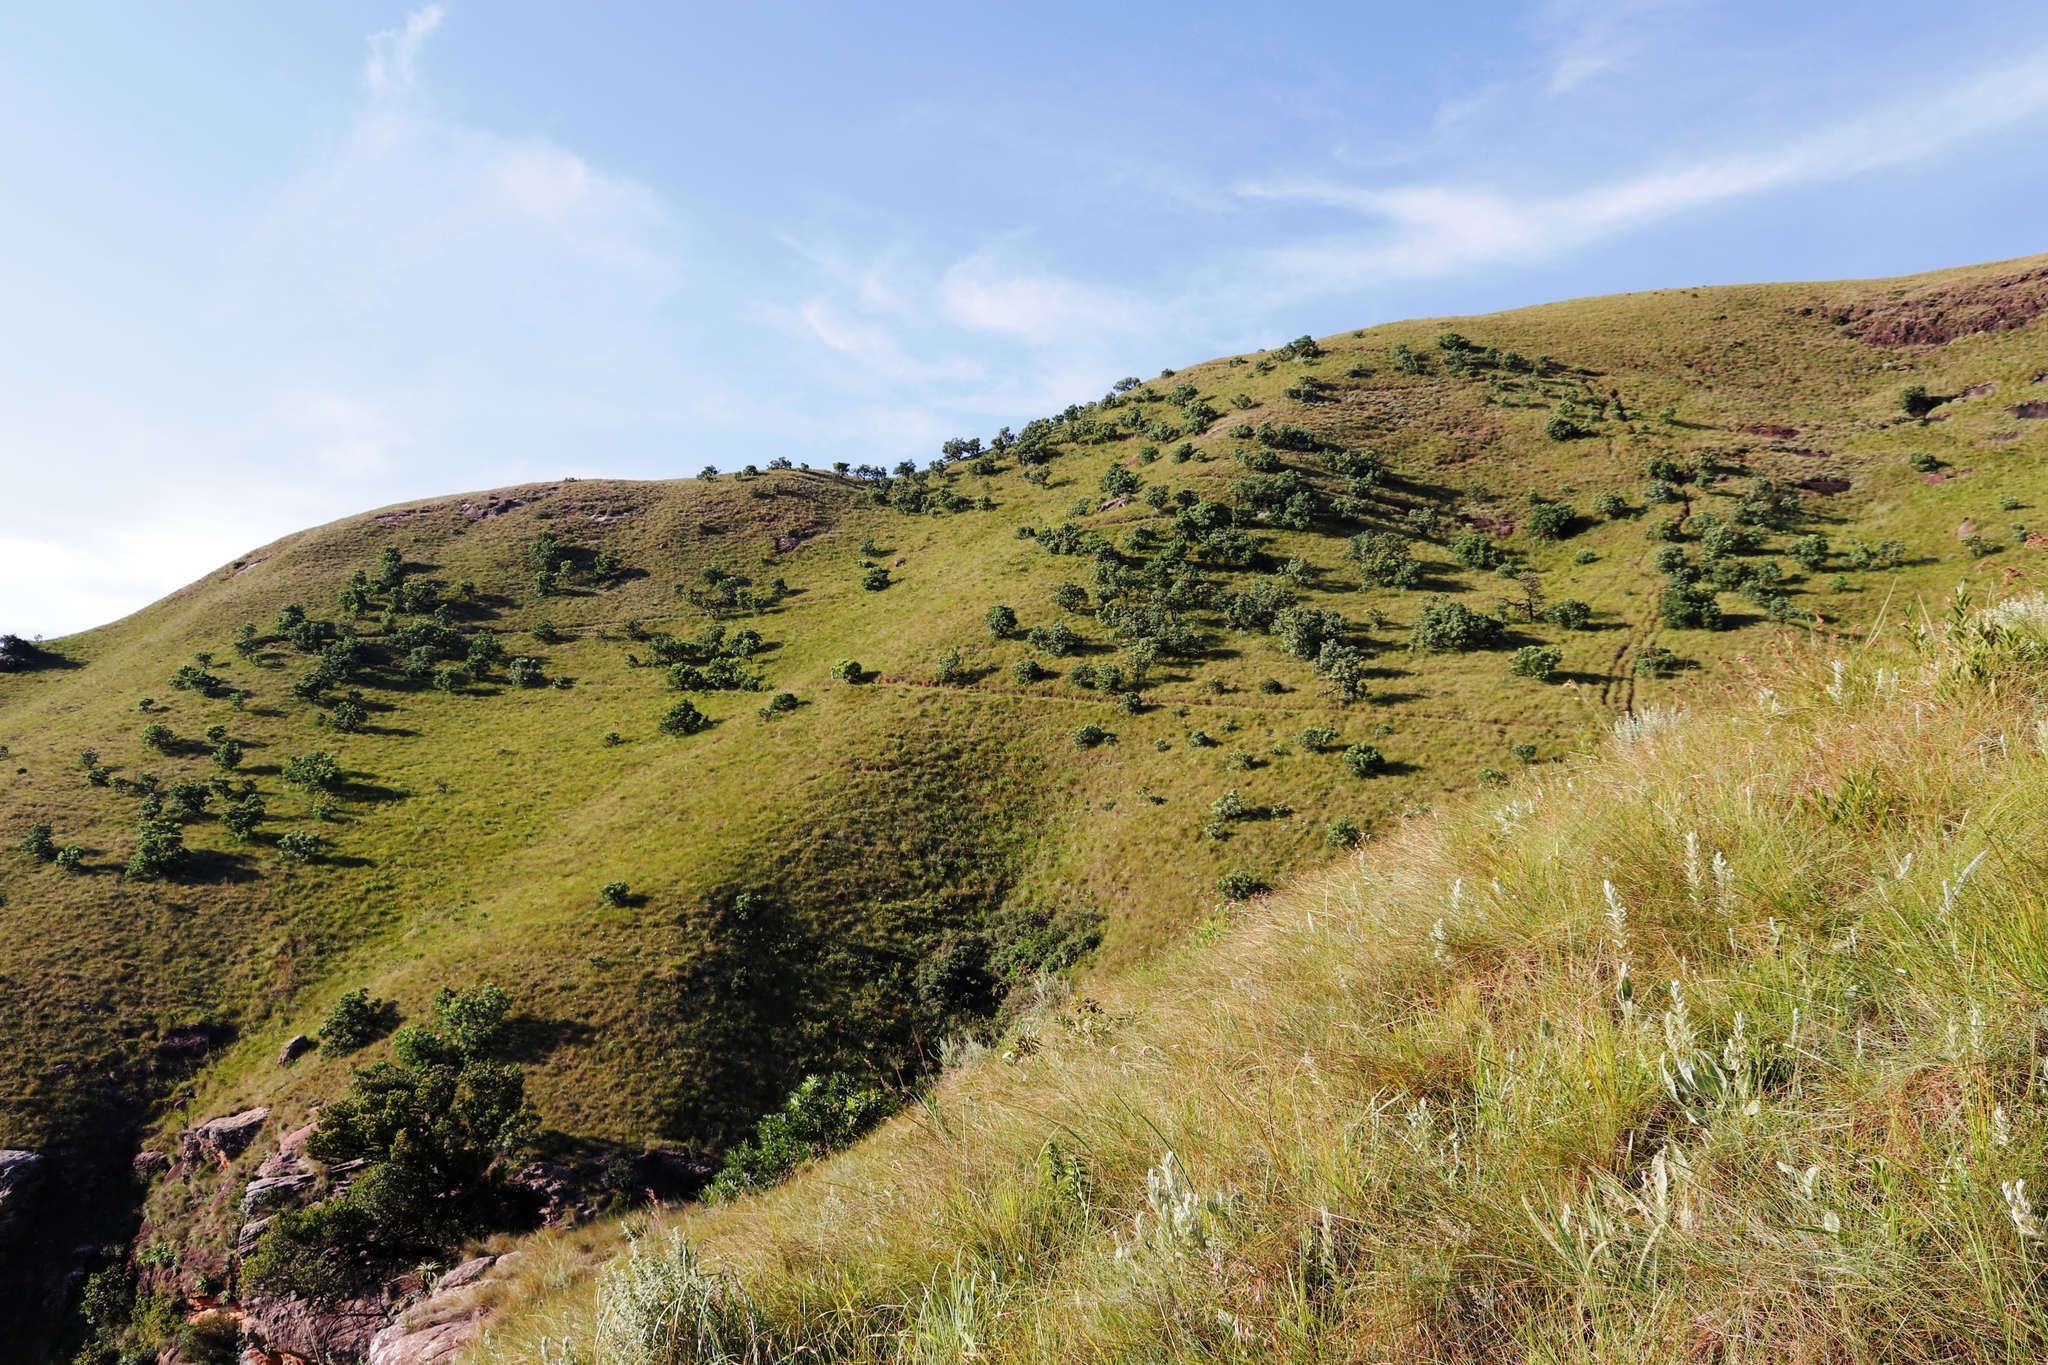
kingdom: Plantae
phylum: Tracheophyta
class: Magnoliopsida
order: Proteales
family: Proteaceae
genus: Protea
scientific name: Protea caffra
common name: Common sugarbush
